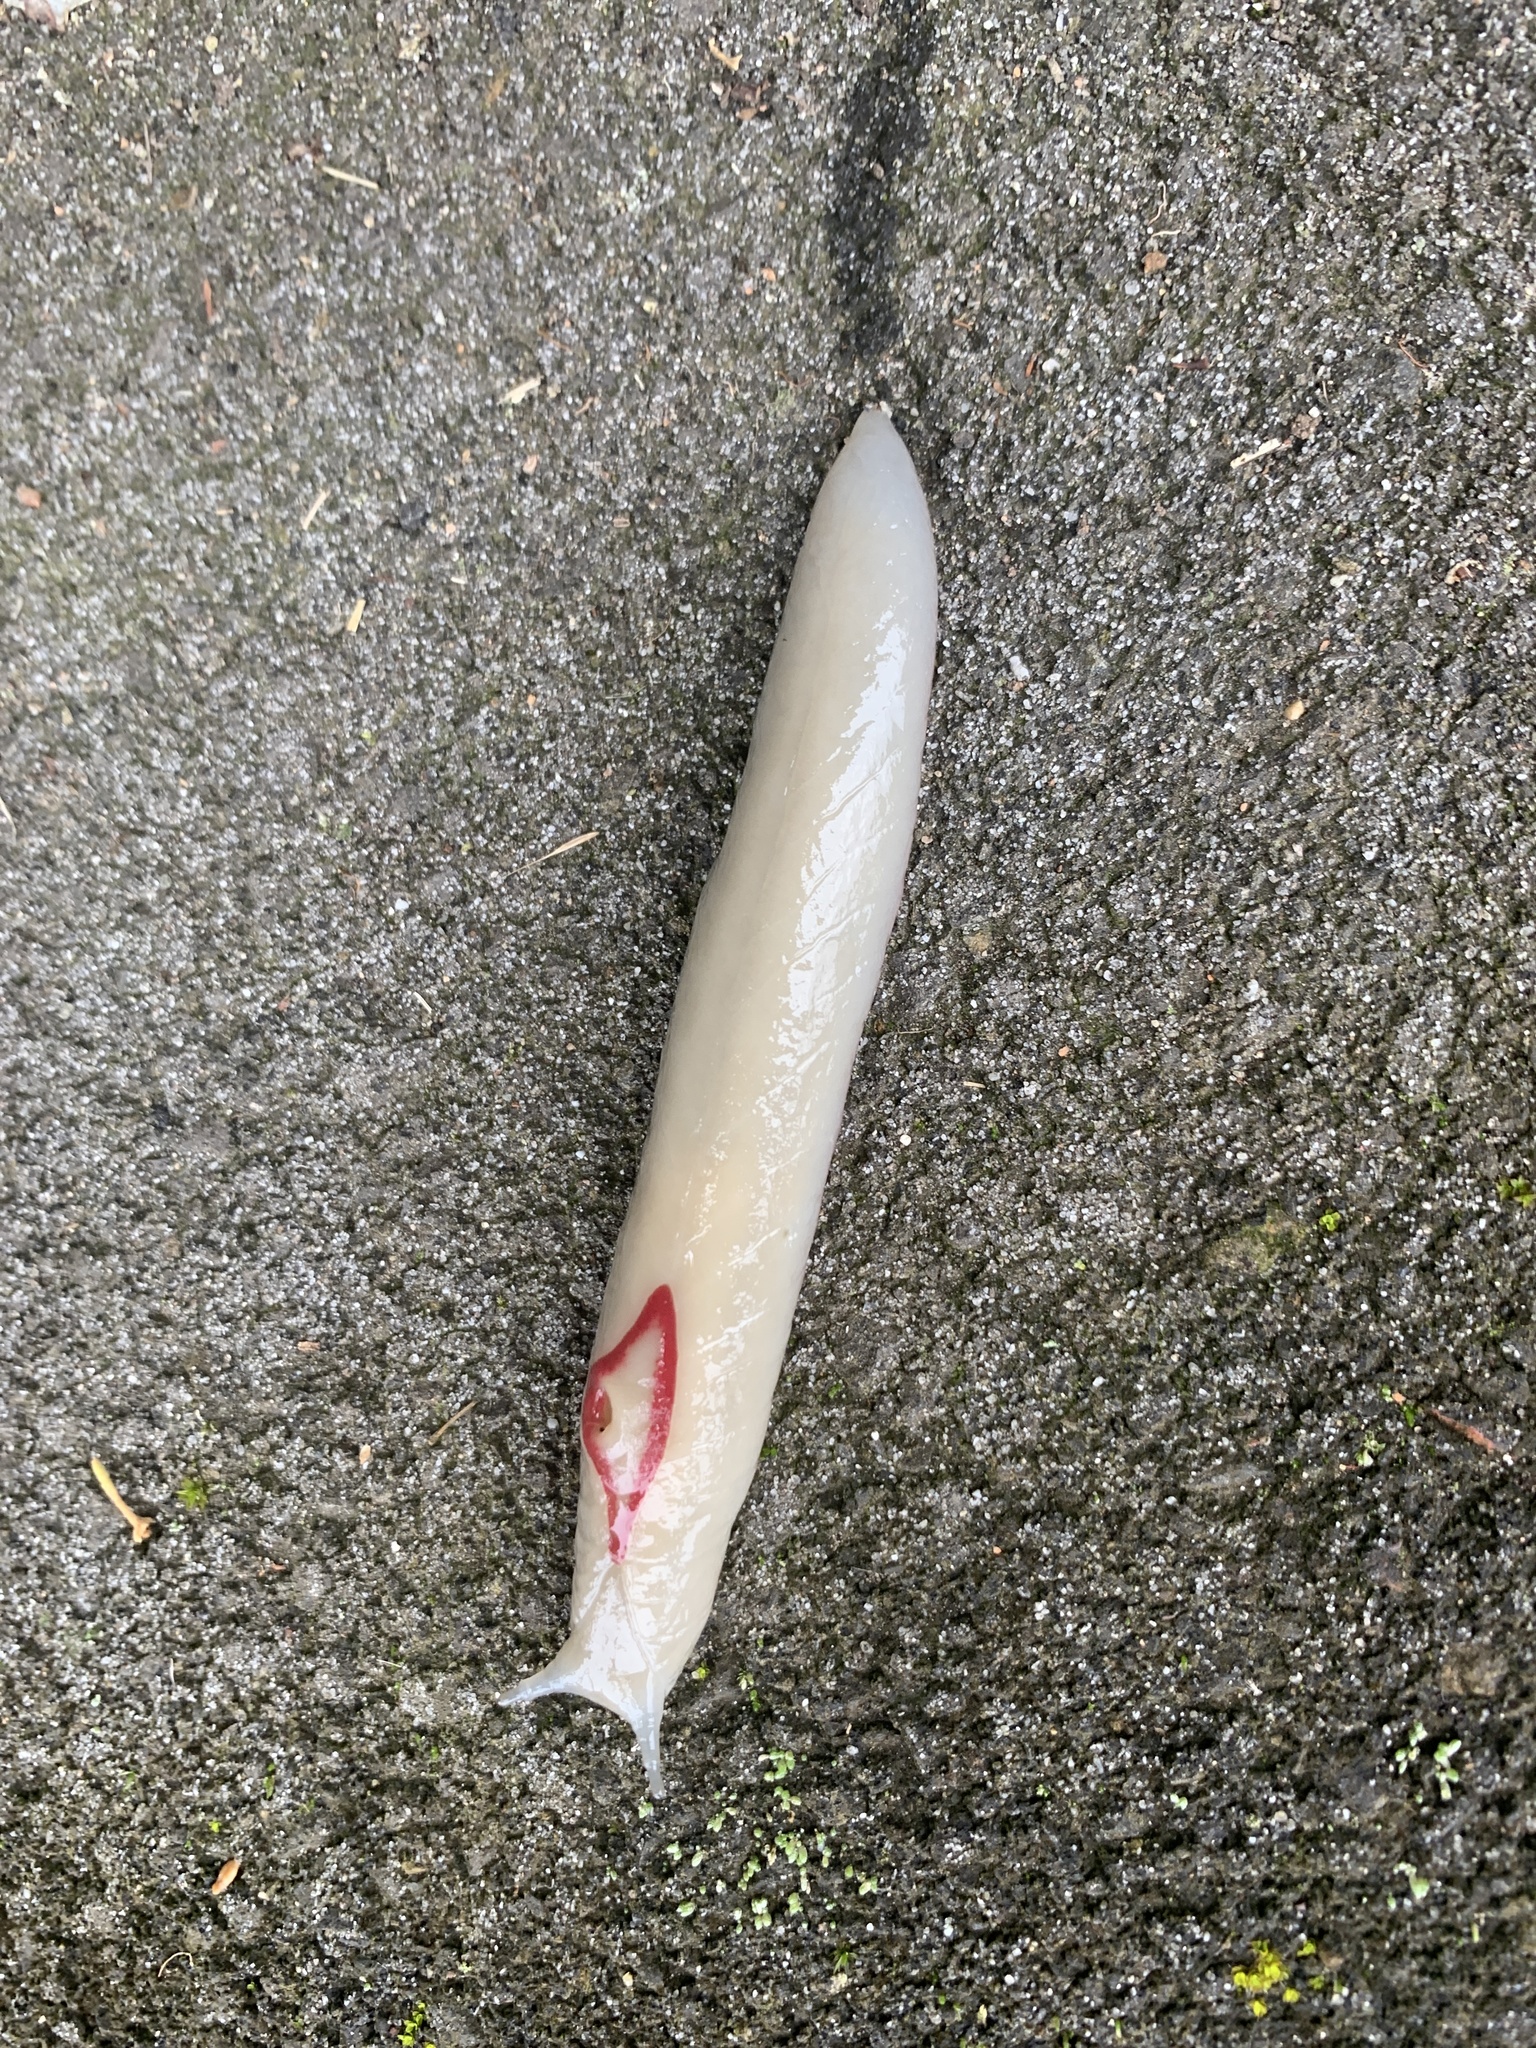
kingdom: Animalia
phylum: Mollusca
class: Gastropoda
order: Stylommatophora
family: Athoracophoridae
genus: Triboniophorus
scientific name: Triboniophorus graeffei
